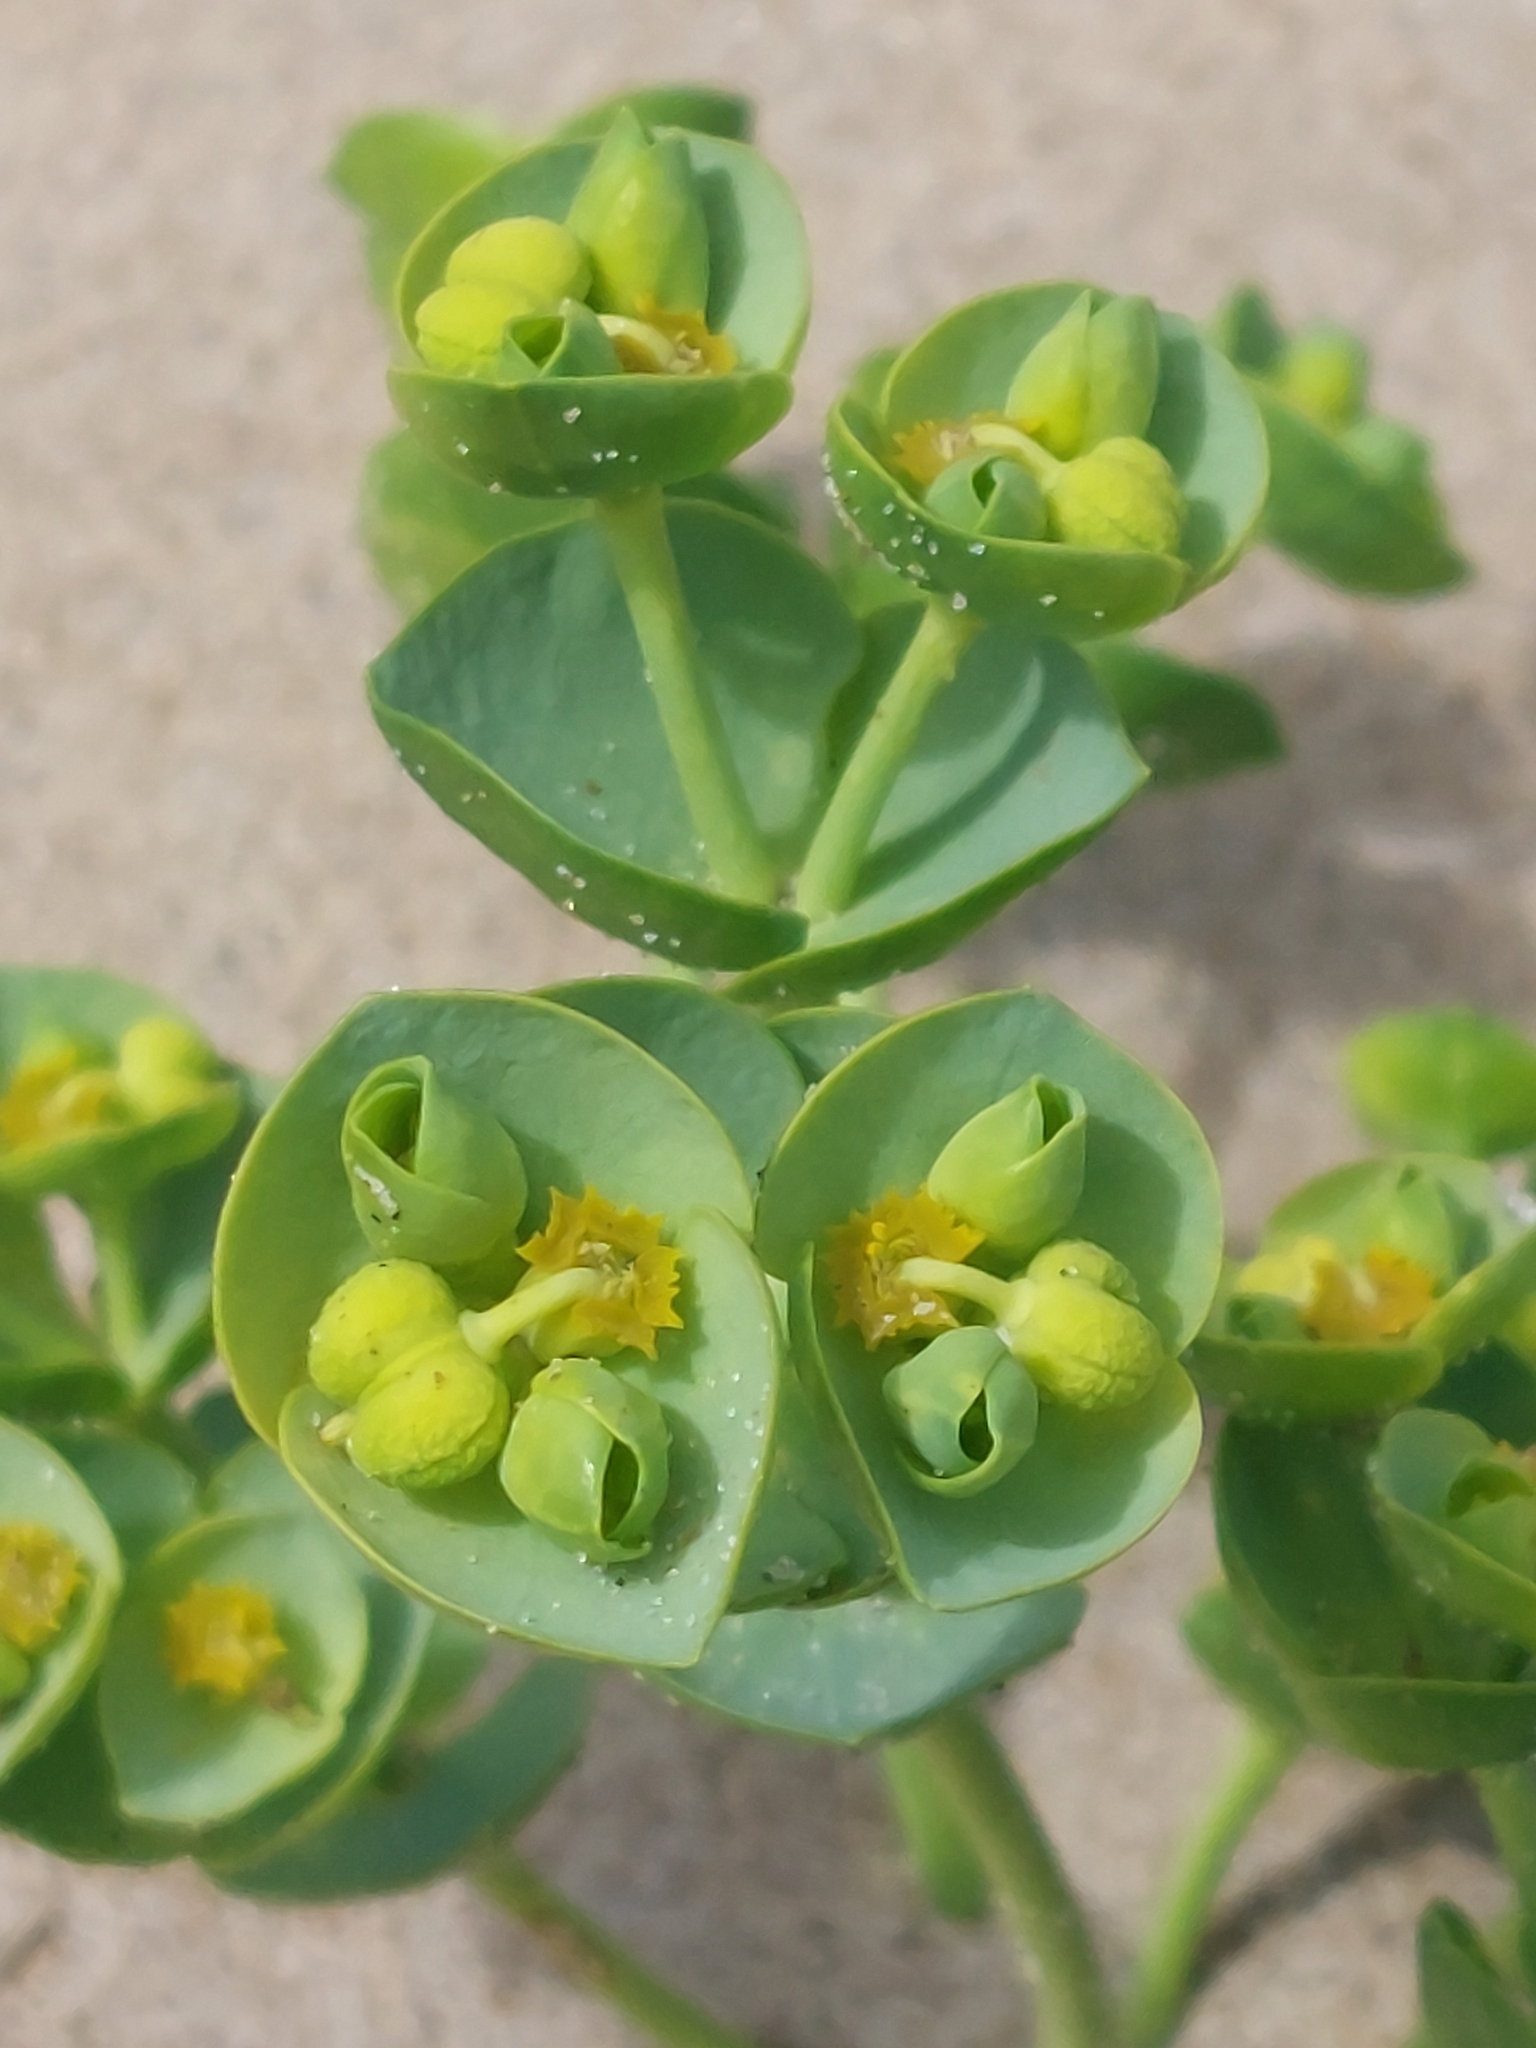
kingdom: Plantae
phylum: Tracheophyta
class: Magnoliopsida
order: Malpighiales
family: Euphorbiaceae
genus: Euphorbia
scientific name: Euphorbia paralias
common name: Sea spurge
